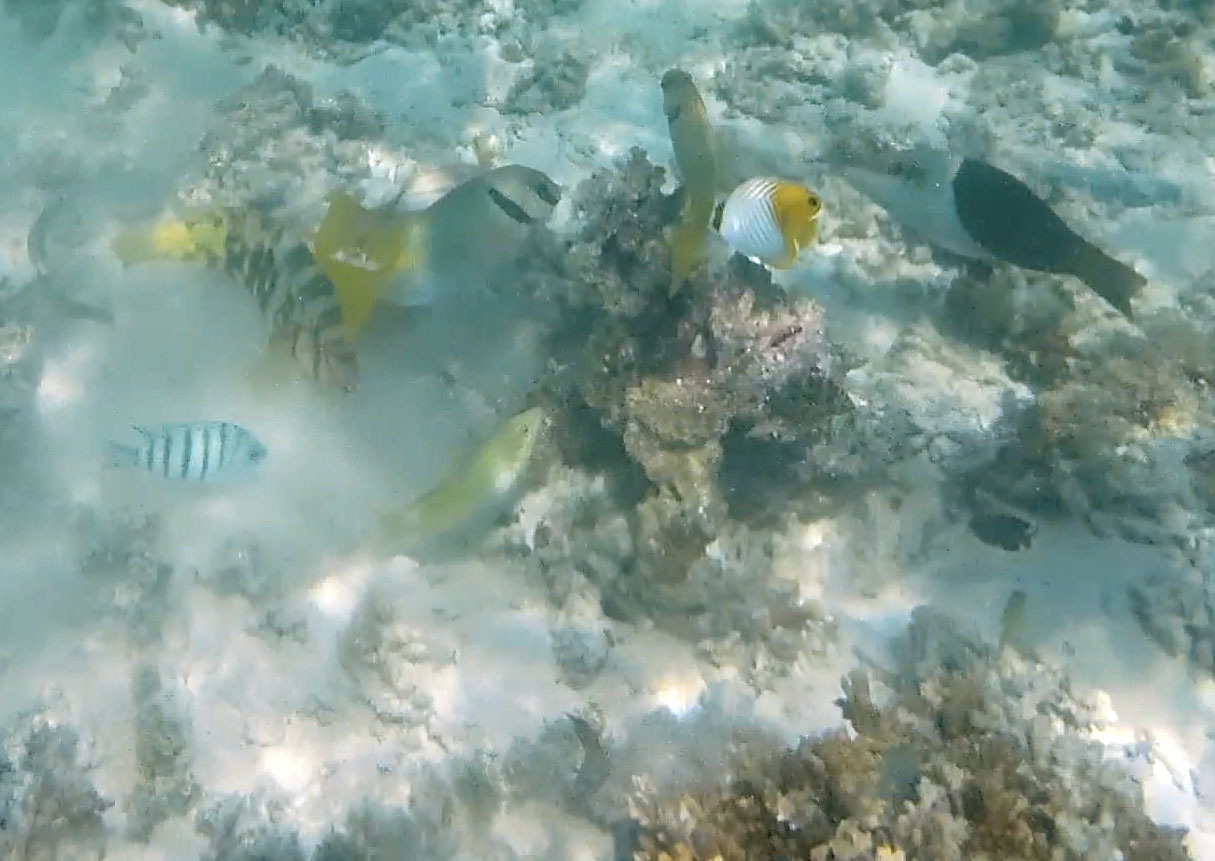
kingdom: Animalia
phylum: Chordata
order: Perciformes
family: Chaetodontidae
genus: Chaetodon
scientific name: Chaetodon auriga
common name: Threadfin butterflyfish
